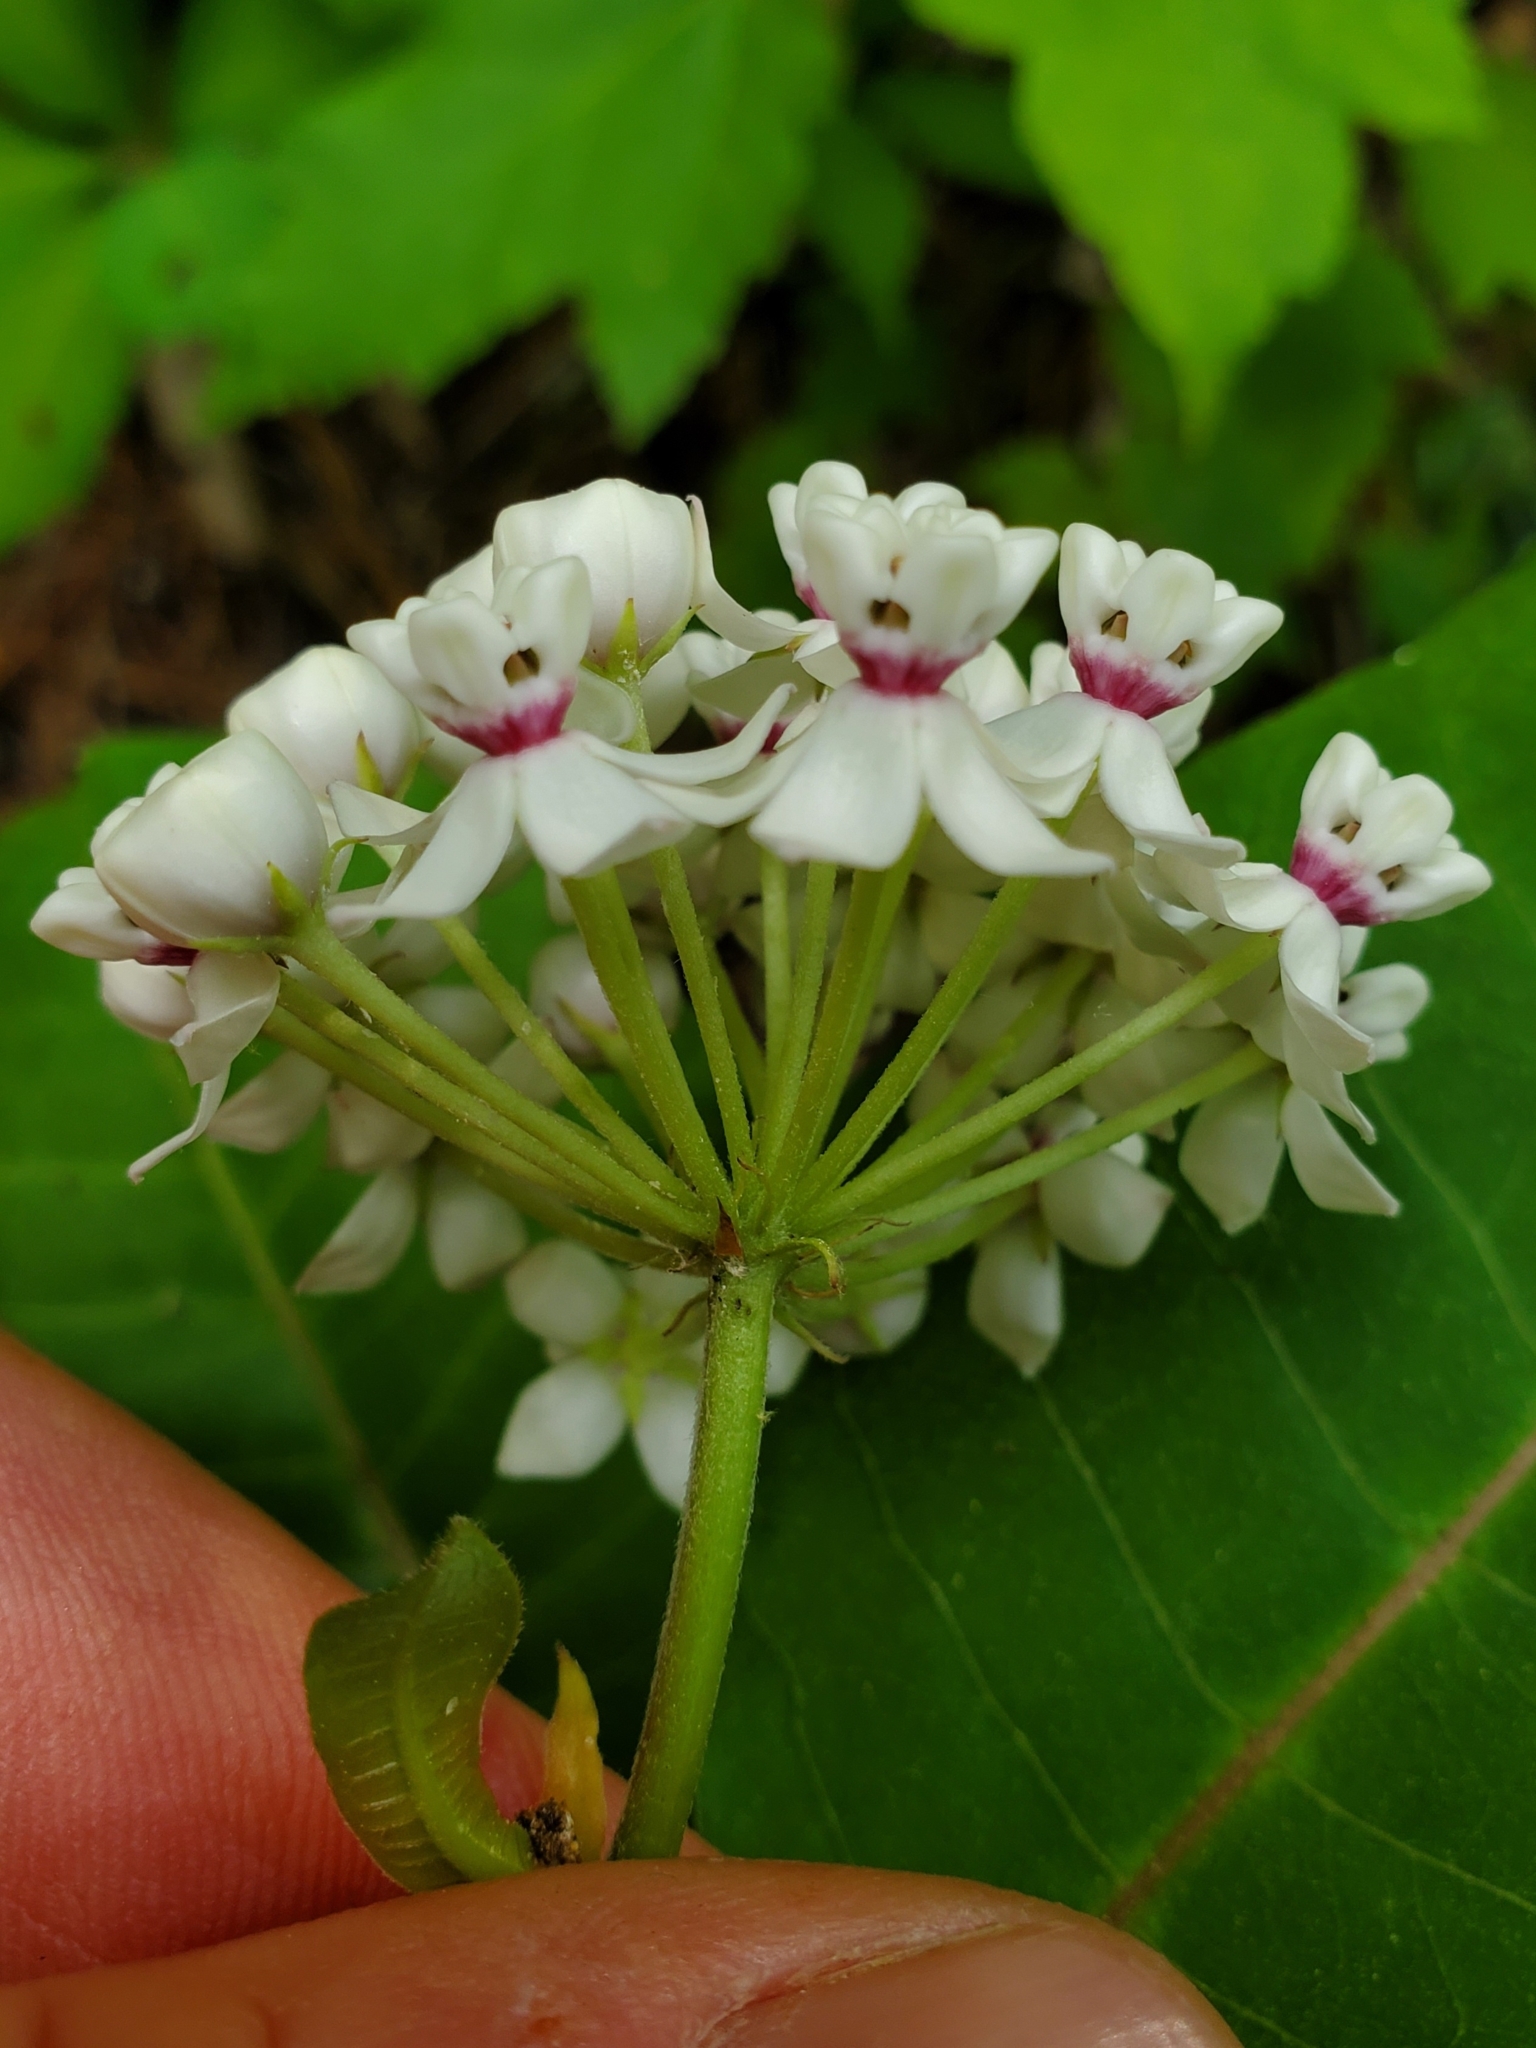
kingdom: Plantae
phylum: Tracheophyta
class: Magnoliopsida
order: Gentianales
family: Apocynaceae
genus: Asclepias
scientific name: Asclepias variegata
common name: Variegated milkweed
